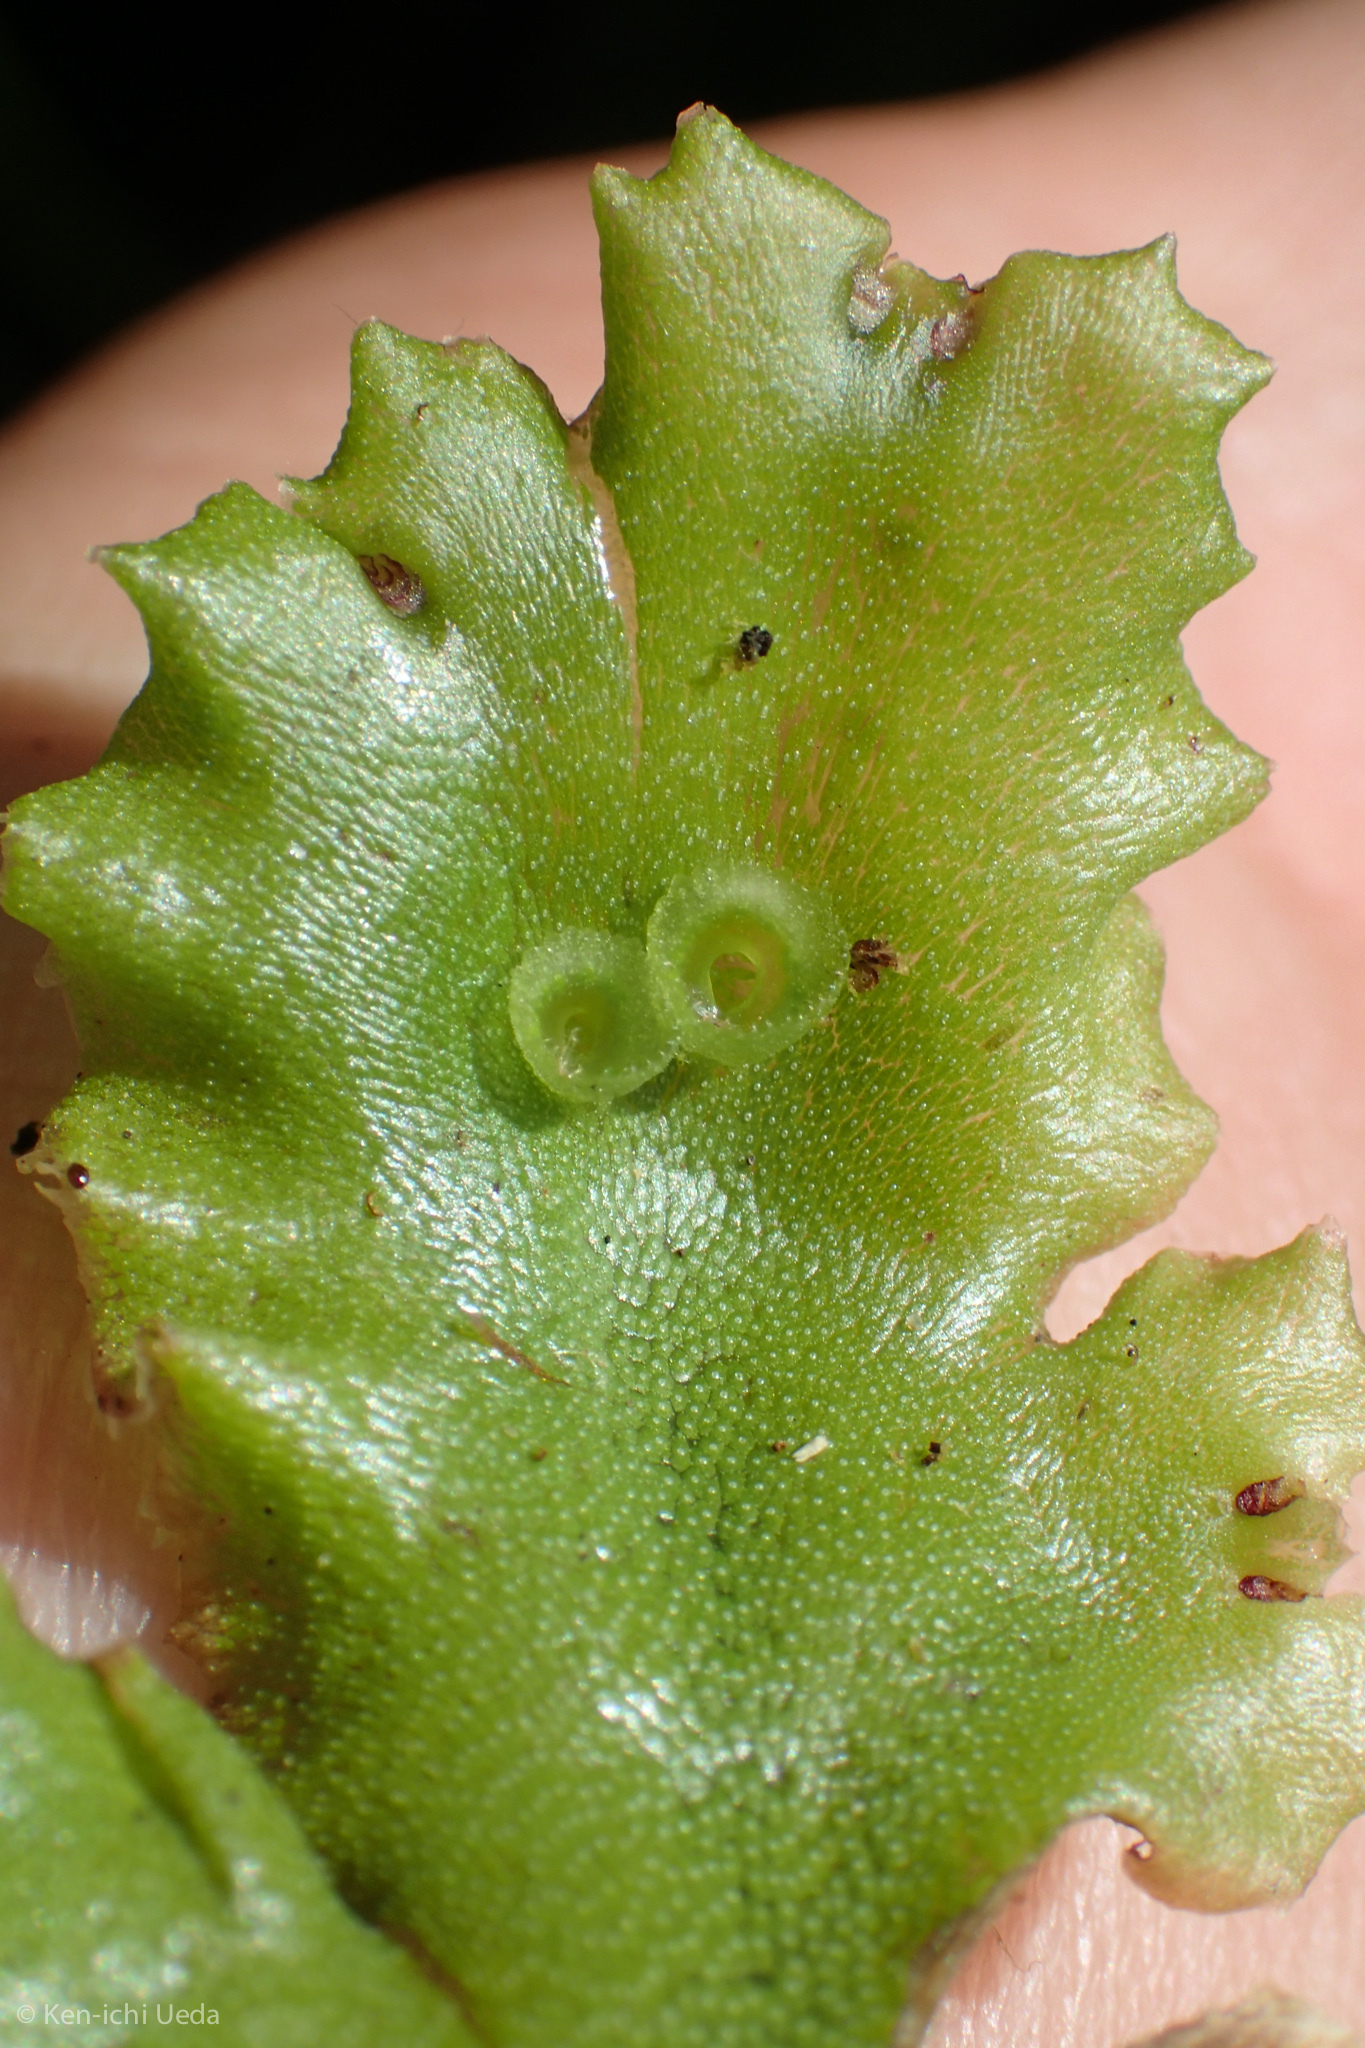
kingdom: Plantae
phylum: Marchantiophyta
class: Marchantiopsida
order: Marchantiales
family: Marchantiaceae
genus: Marchantia
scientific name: Marchantia polymorpha
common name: Common liverwort
